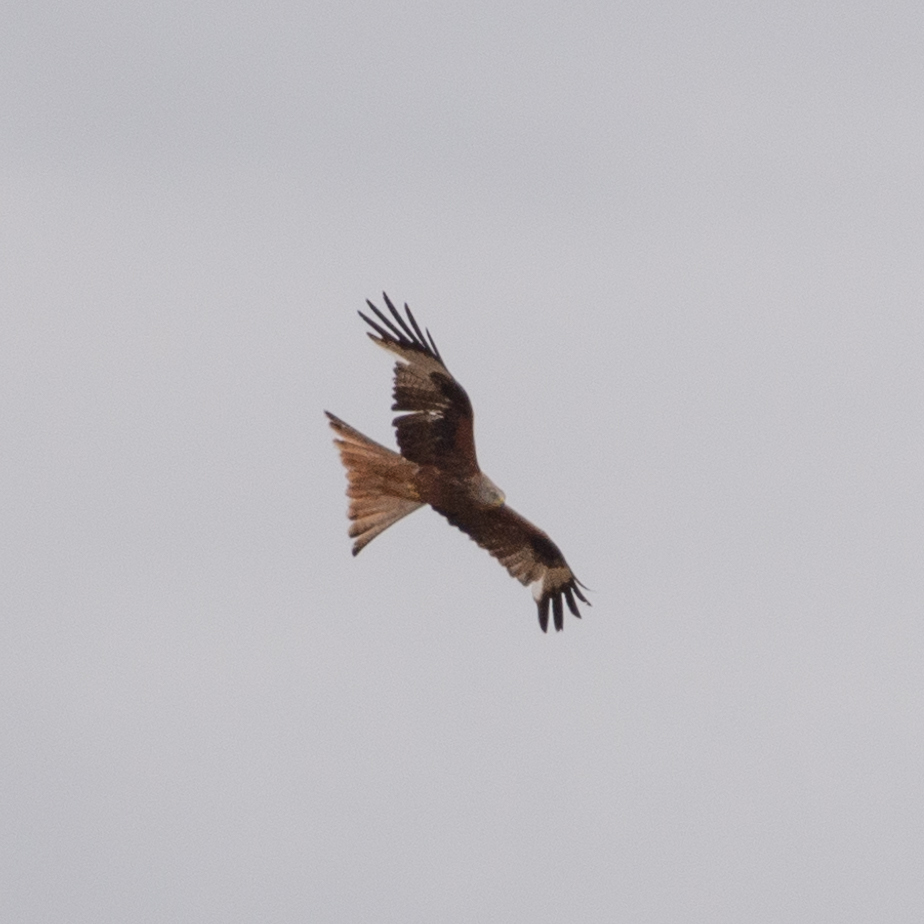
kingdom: Animalia
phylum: Chordata
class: Aves
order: Accipitriformes
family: Accipitridae
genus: Milvus
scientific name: Milvus milvus
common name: Red kite
